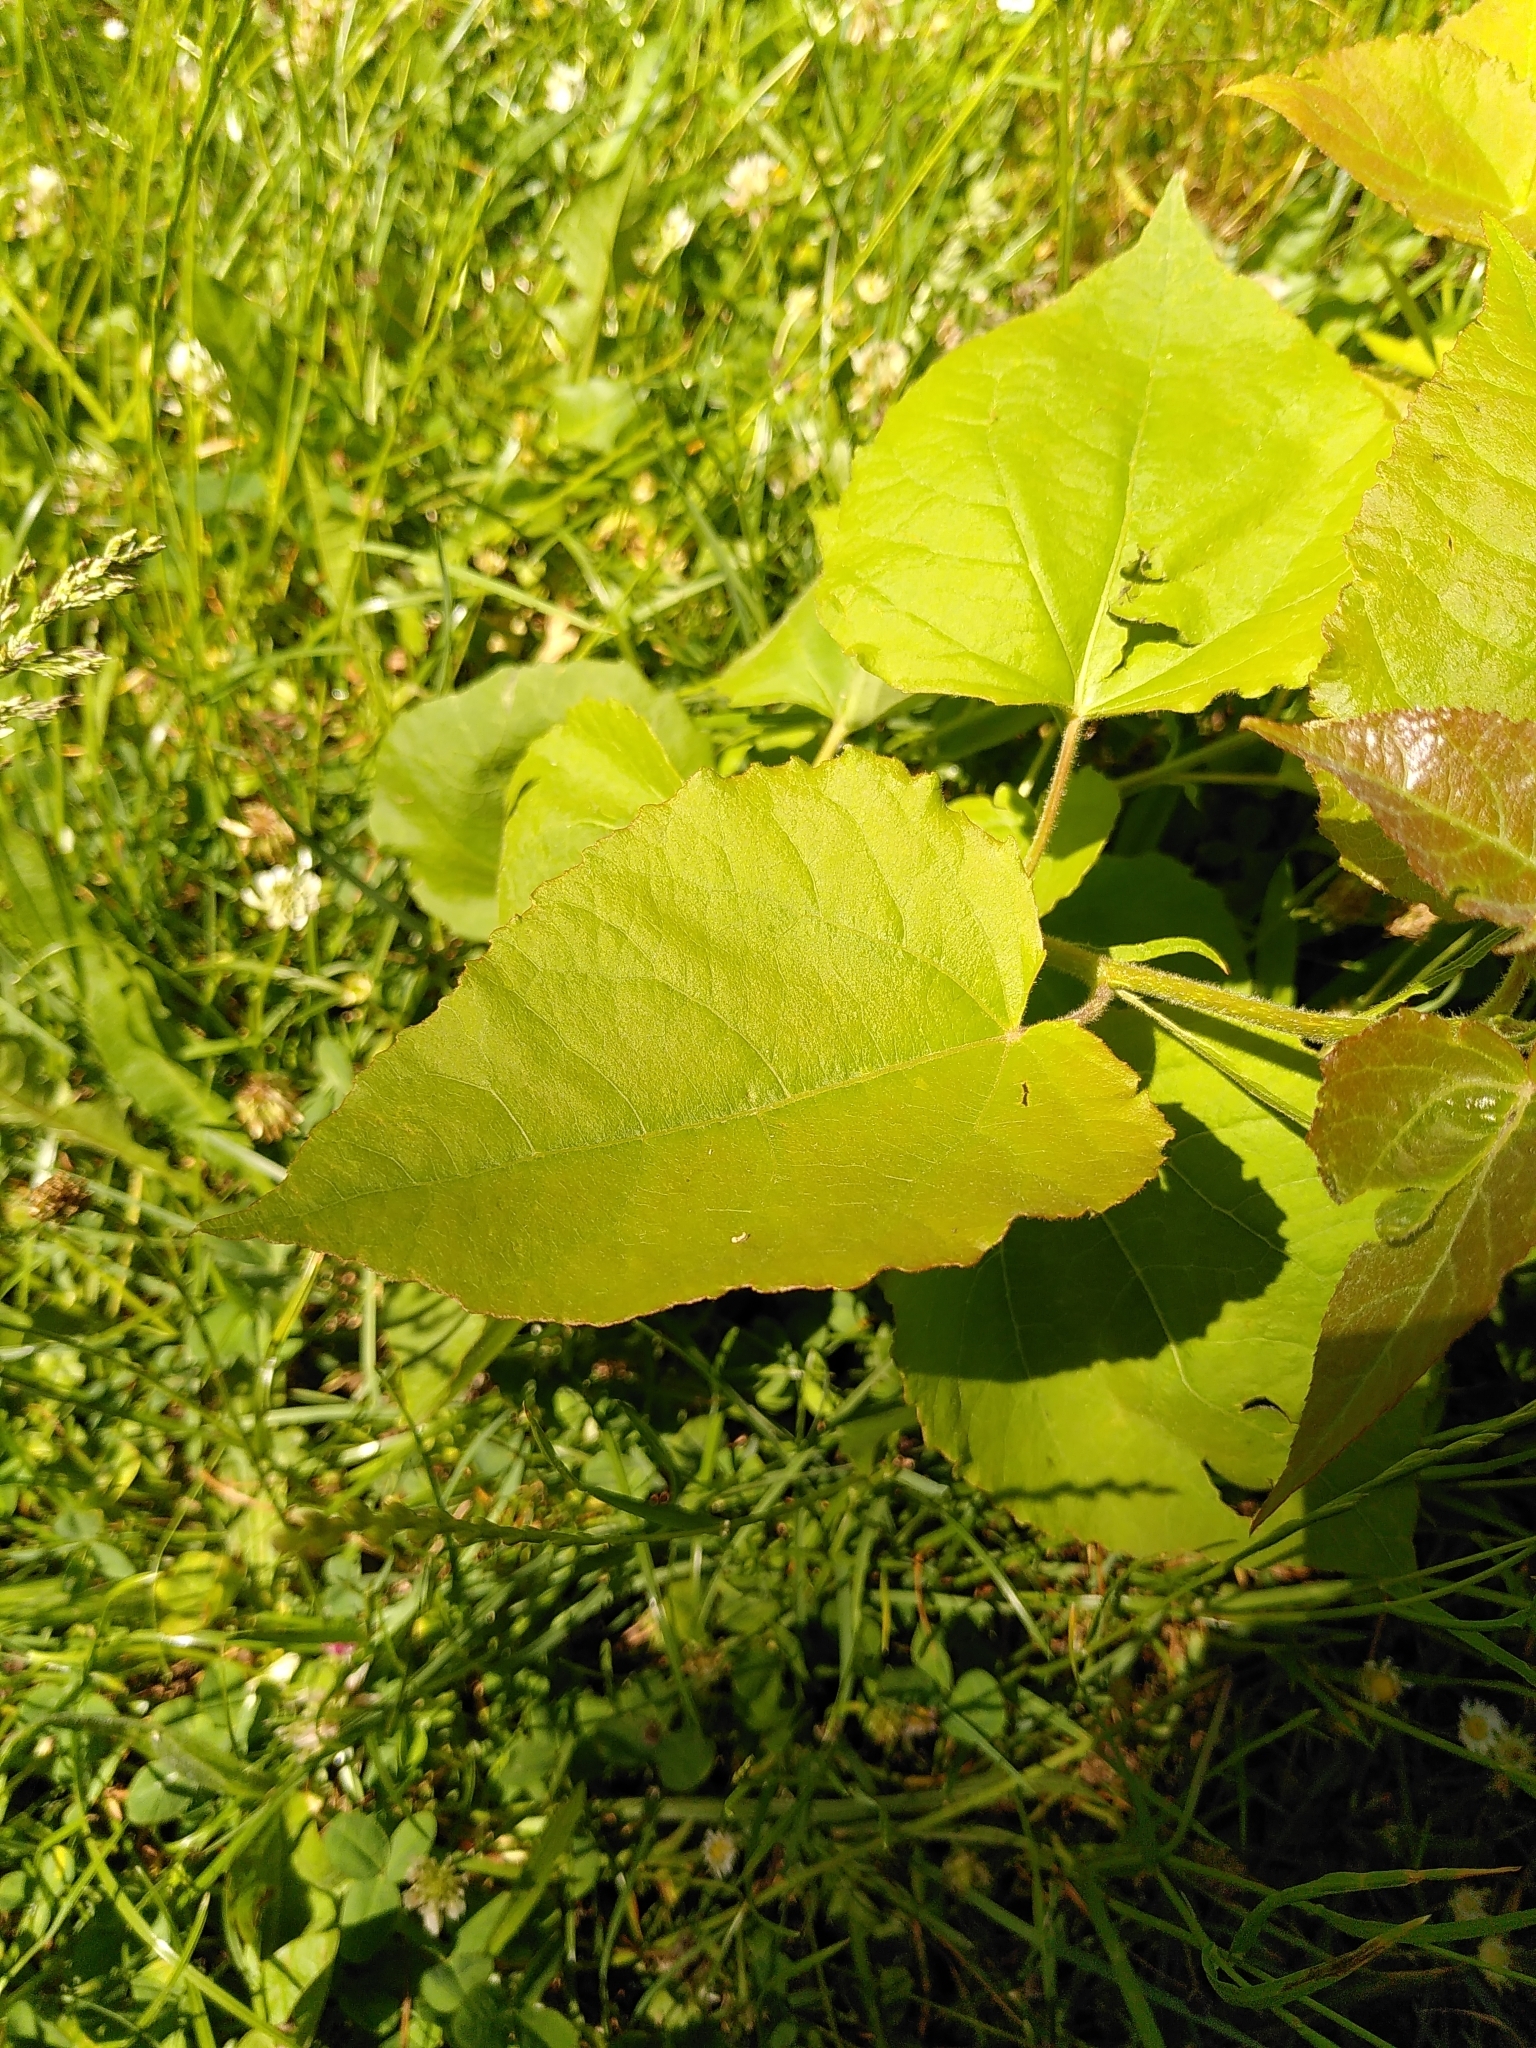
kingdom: Plantae
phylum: Tracheophyta
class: Magnoliopsida
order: Malpighiales
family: Salicaceae
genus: Populus
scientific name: Populus tremula
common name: European aspen
